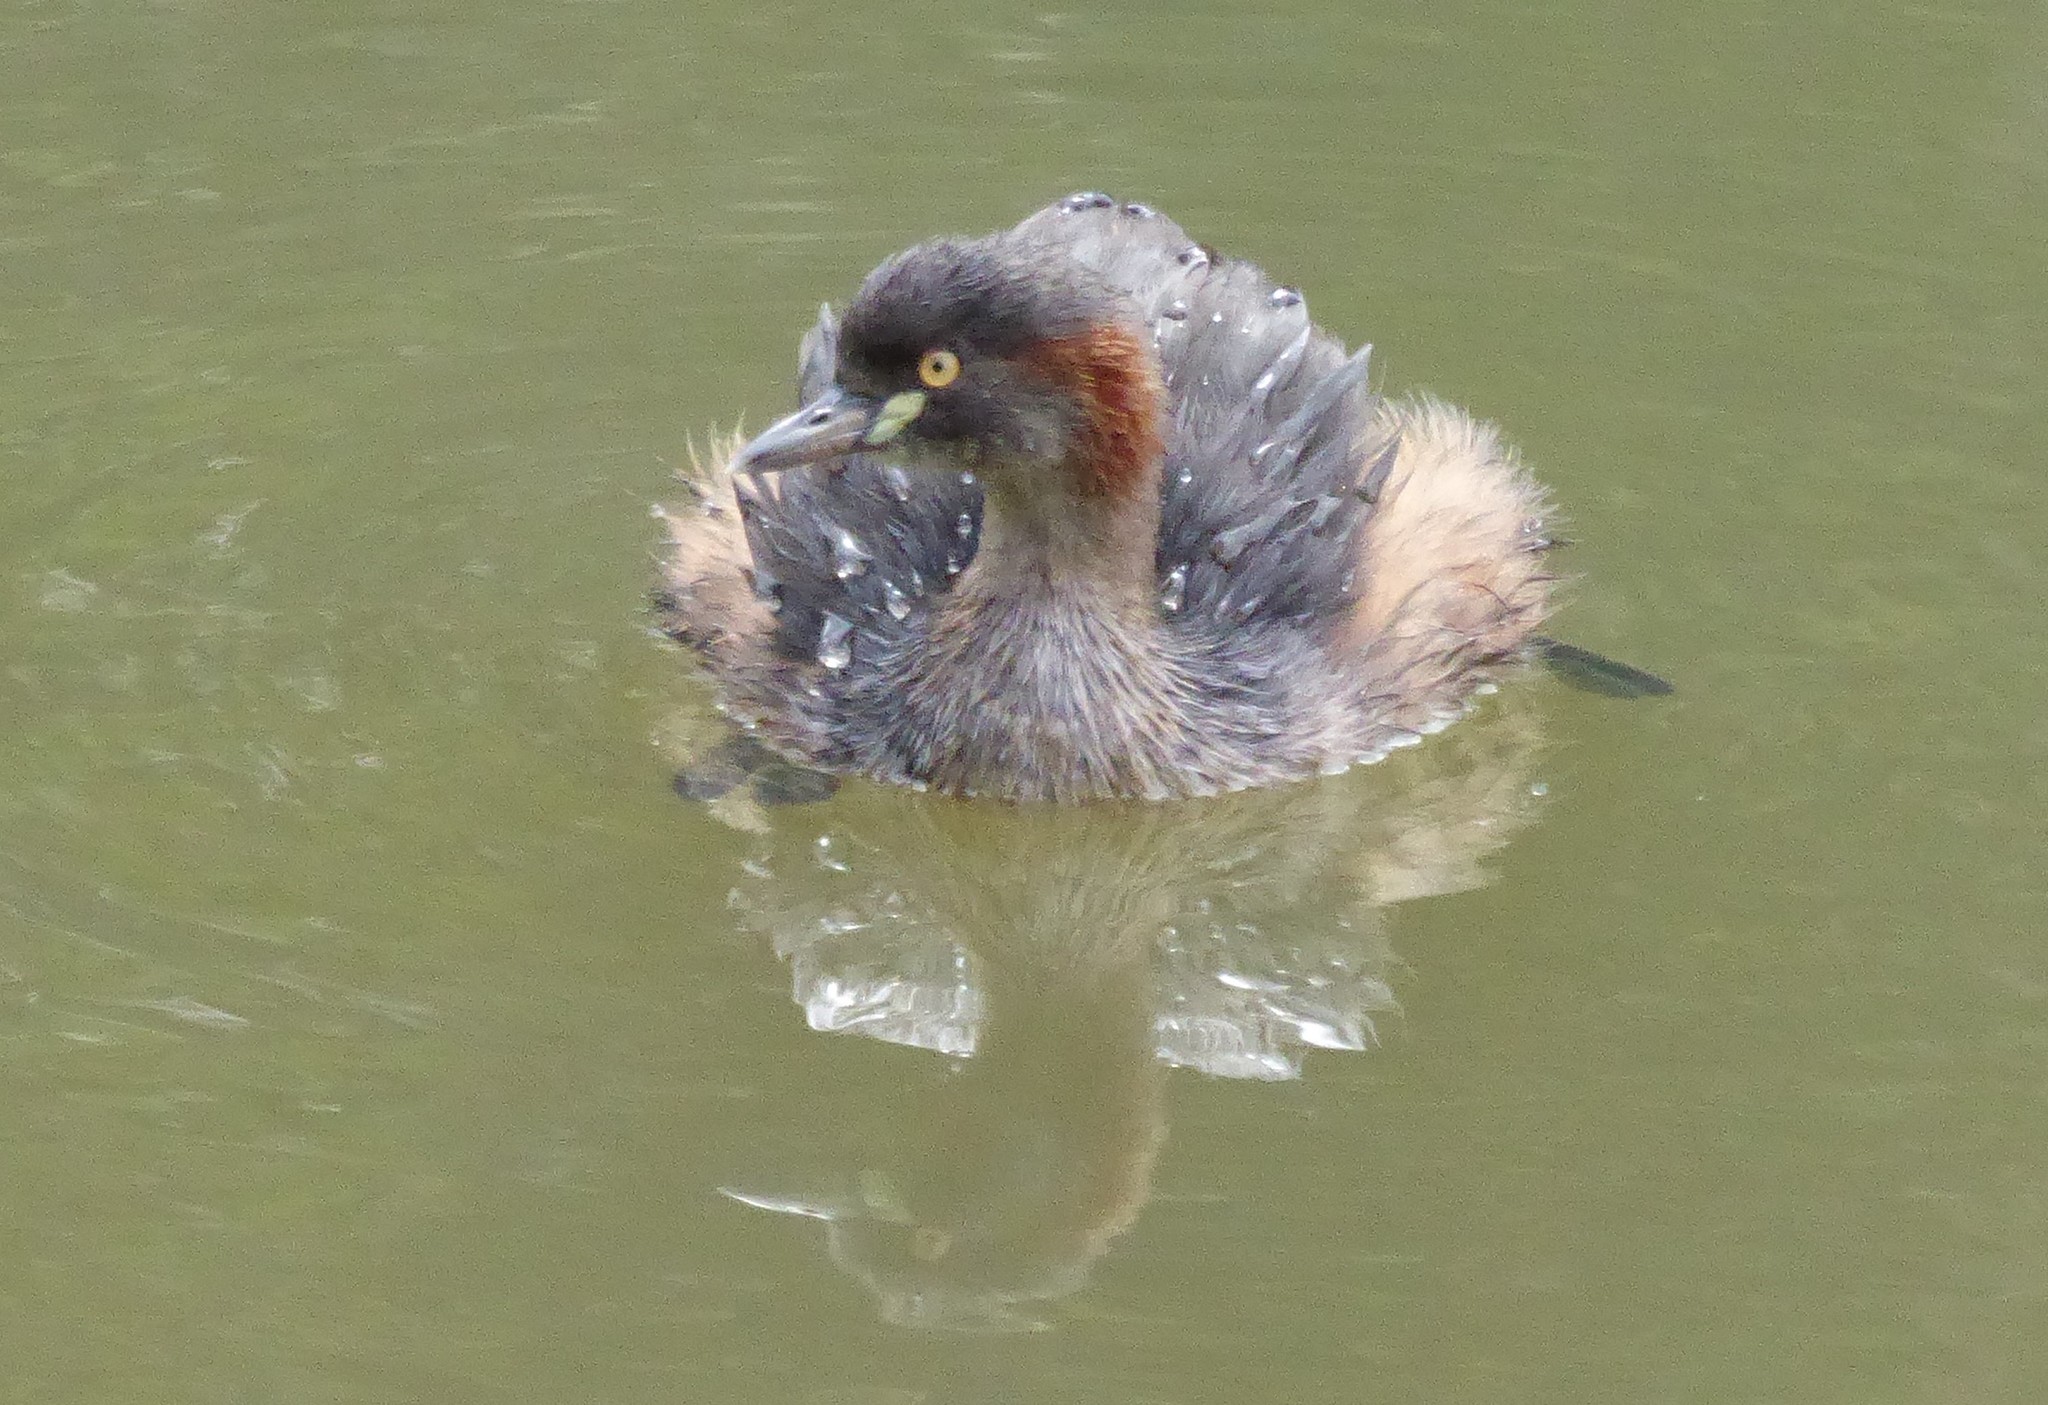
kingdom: Animalia
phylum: Chordata
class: Aves
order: Podicipediformes
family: Podicipedidae
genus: Tachybaptus
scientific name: Tachybaptus novaehollandiae
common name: Australasian grebe
